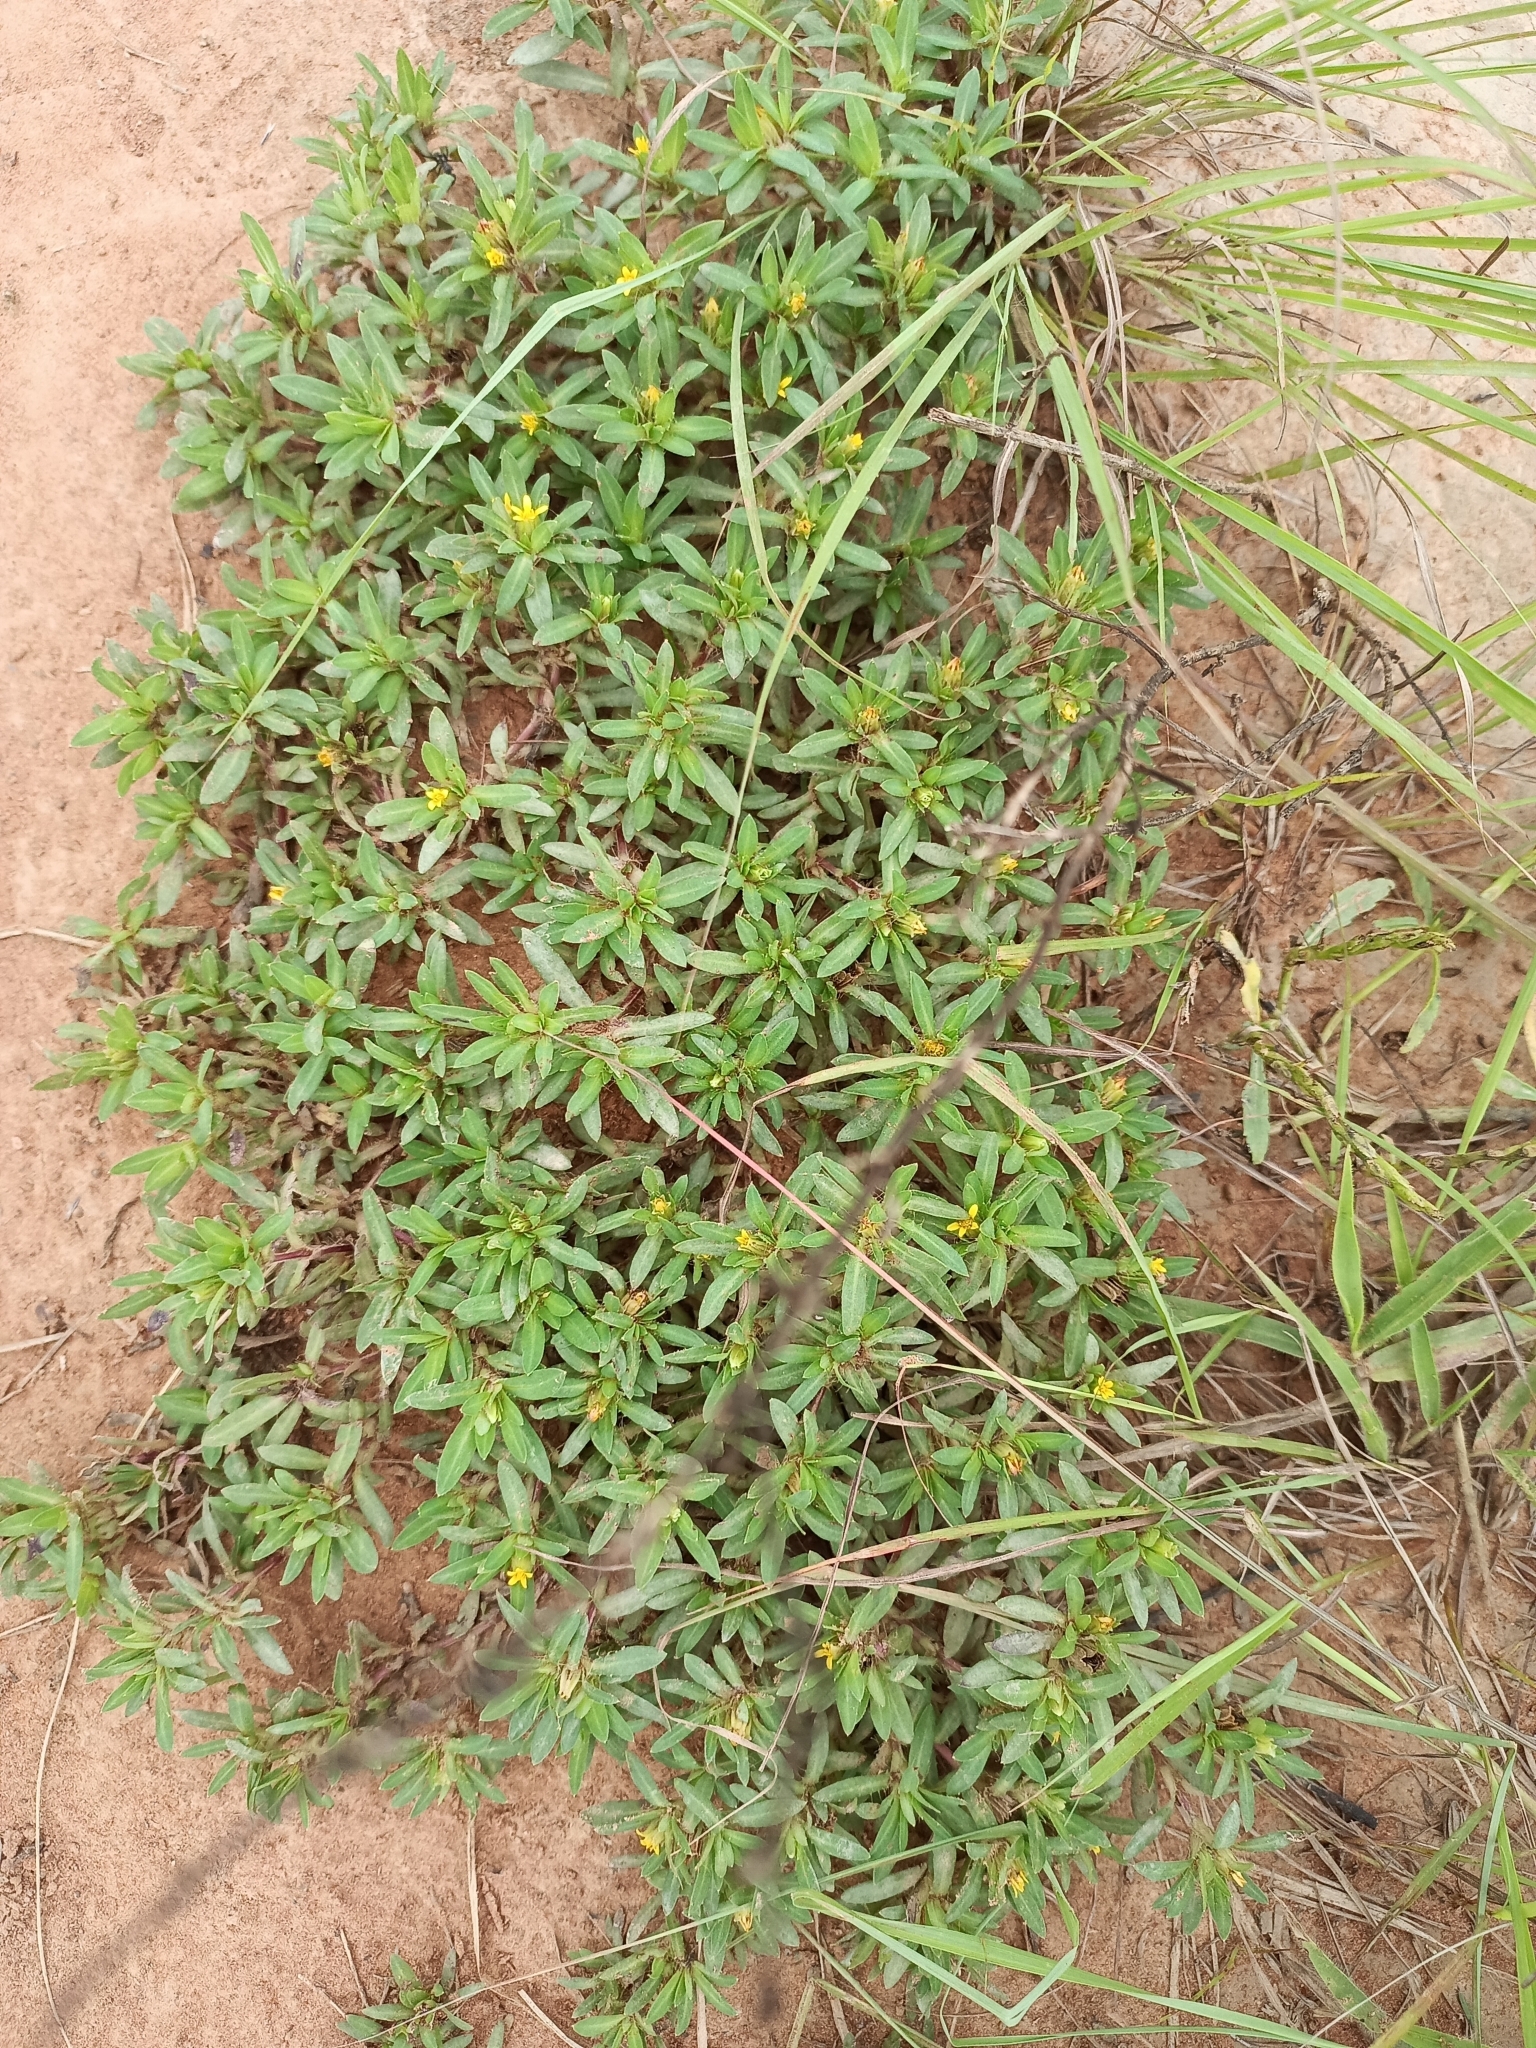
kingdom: Plantae
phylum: Tracheophyta
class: Magnoliopsida
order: Asterales
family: Asteraceae
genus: Pectis
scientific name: Pectis prostrata
